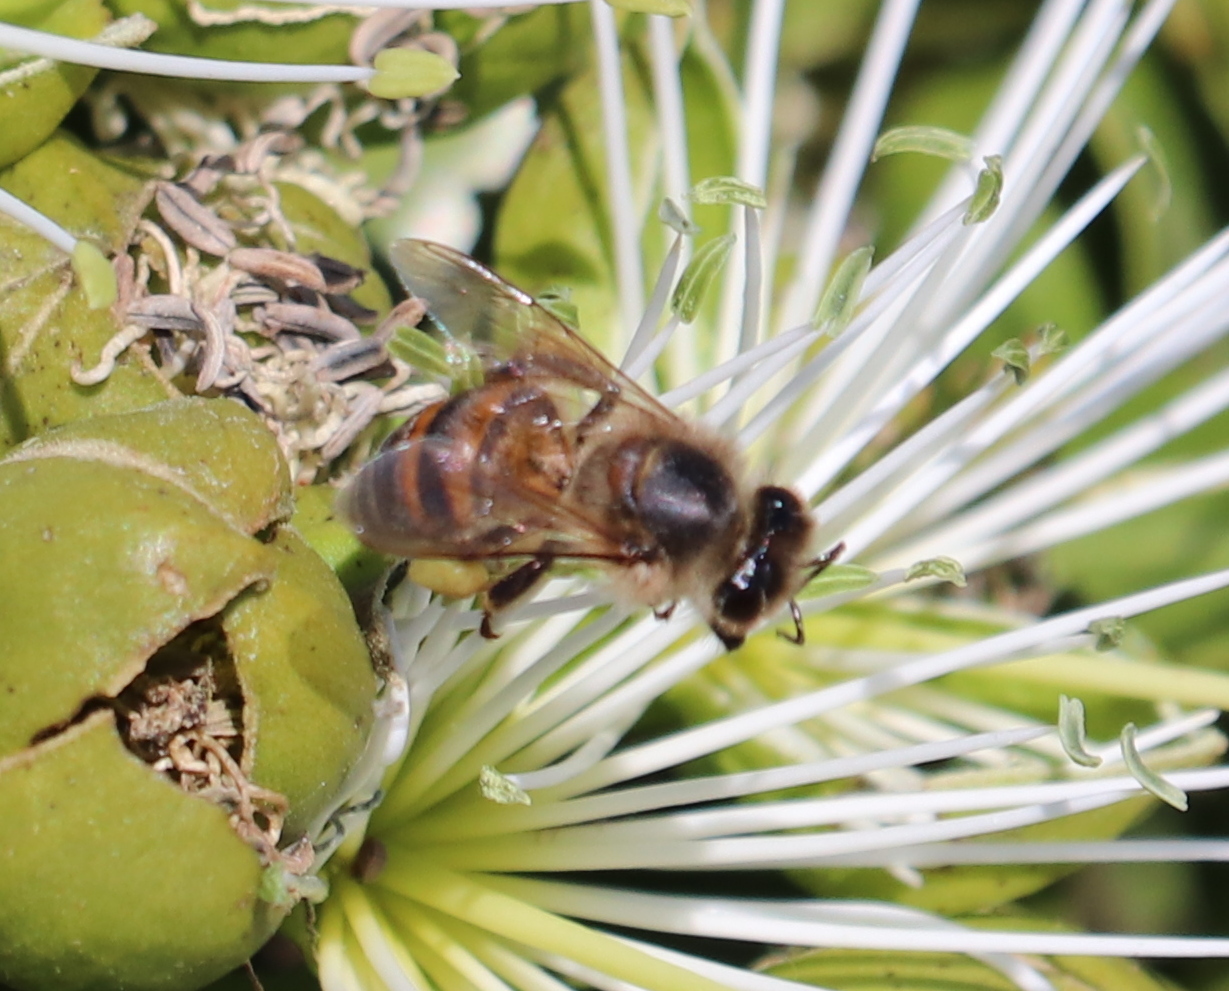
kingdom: Animalia
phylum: Arthropoda
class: Insecta
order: Hymenoptera
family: Apidae
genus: Apis
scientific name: Apis mellifera
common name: Honey bee
